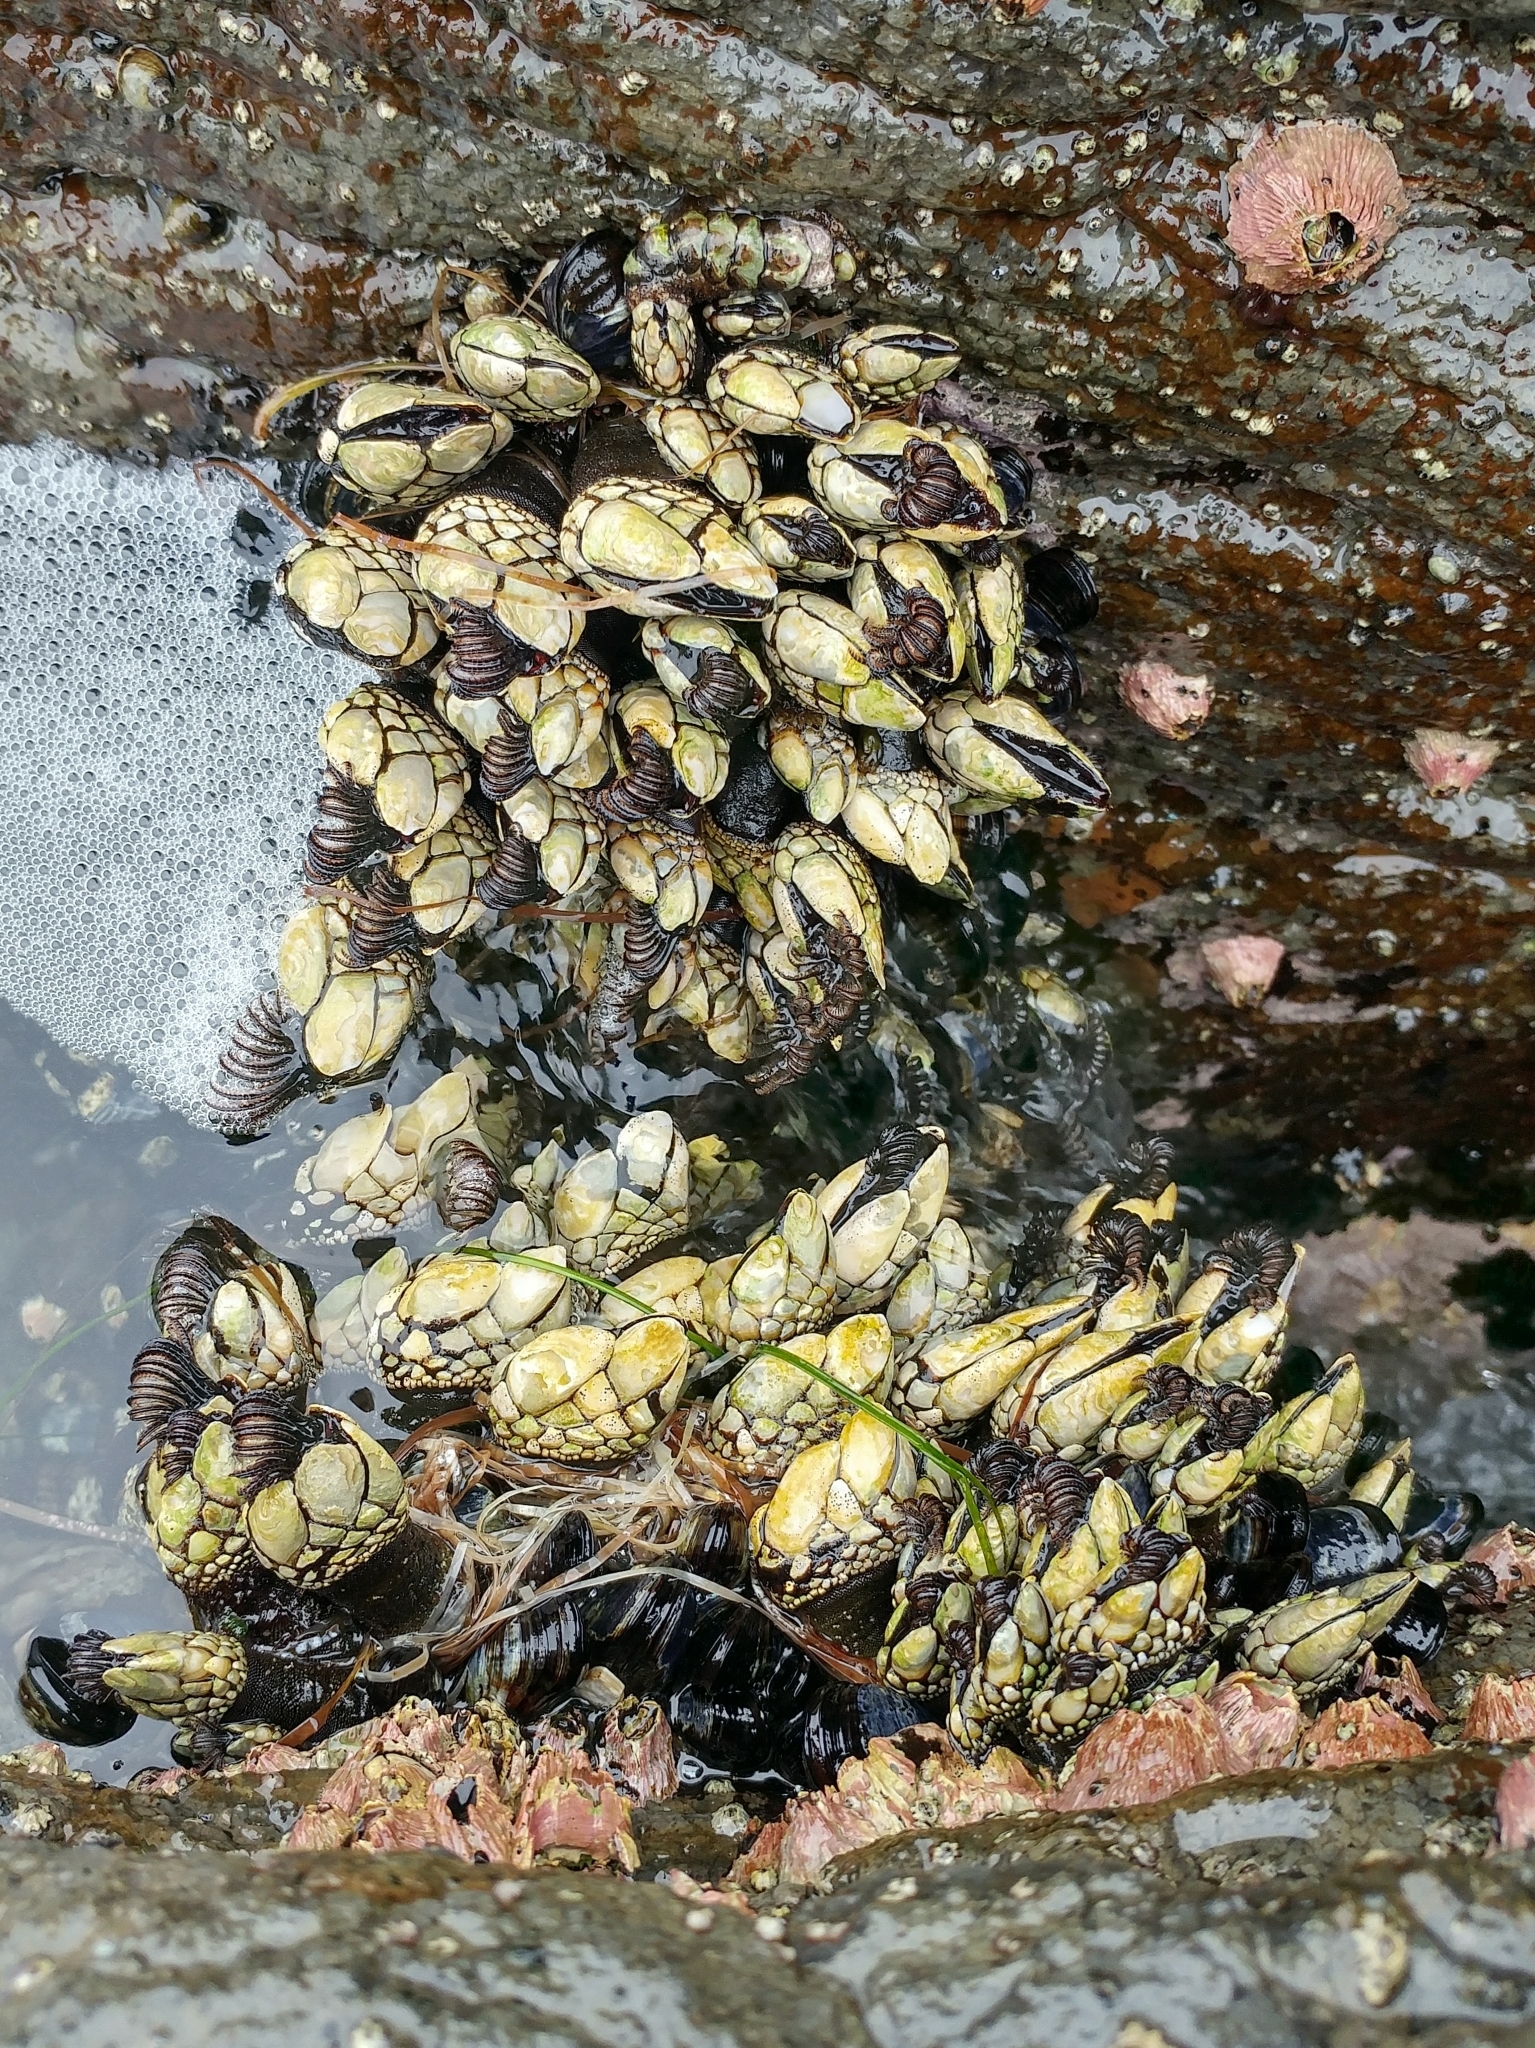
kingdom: Animalia
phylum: Arthropoda
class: Maxillopoda
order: Pedunculata
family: Pollicipedidae
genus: Pollicipes
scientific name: Pollicipes polymerus
